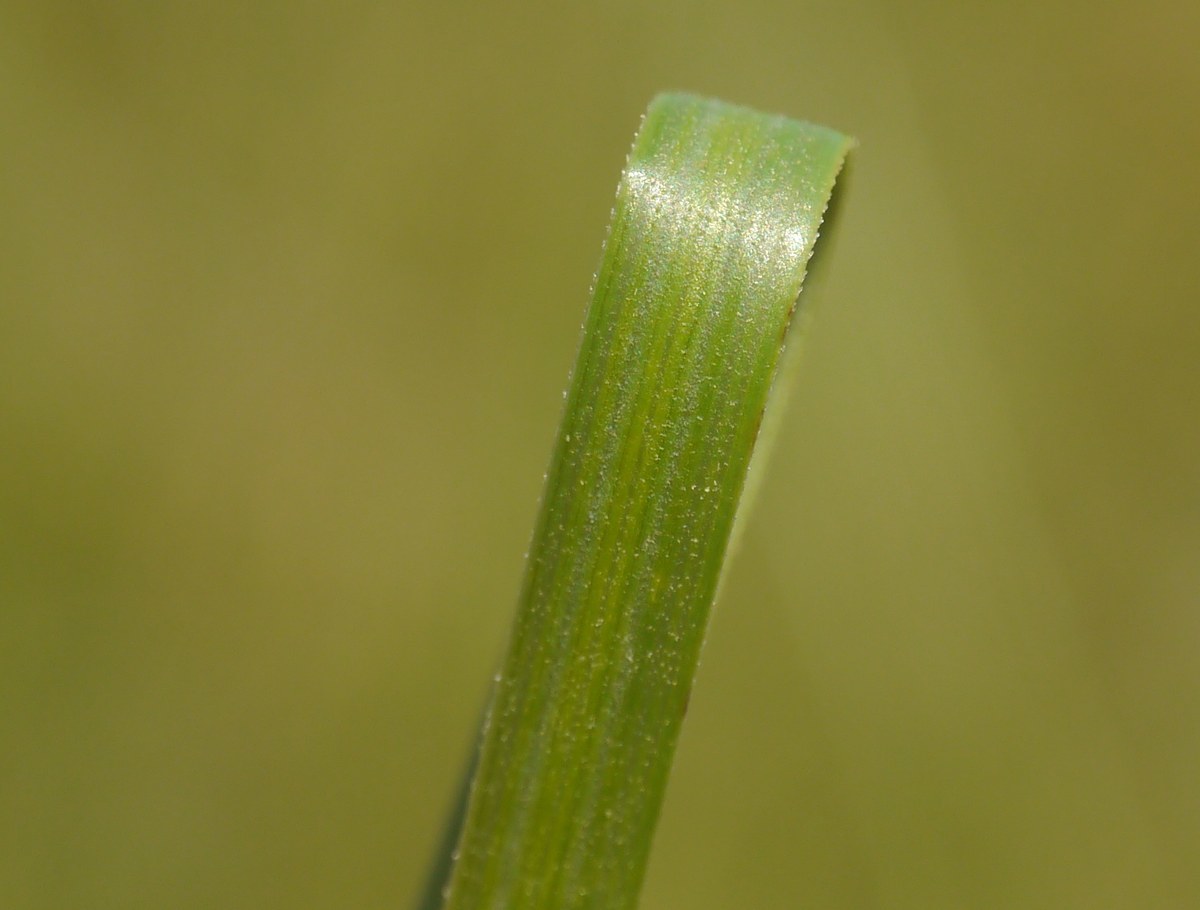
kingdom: Plantae
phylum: Tracheophyta
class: Liliopsida
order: Poales
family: Poaceae
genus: Stipa
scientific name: Stipa pulcherrima
